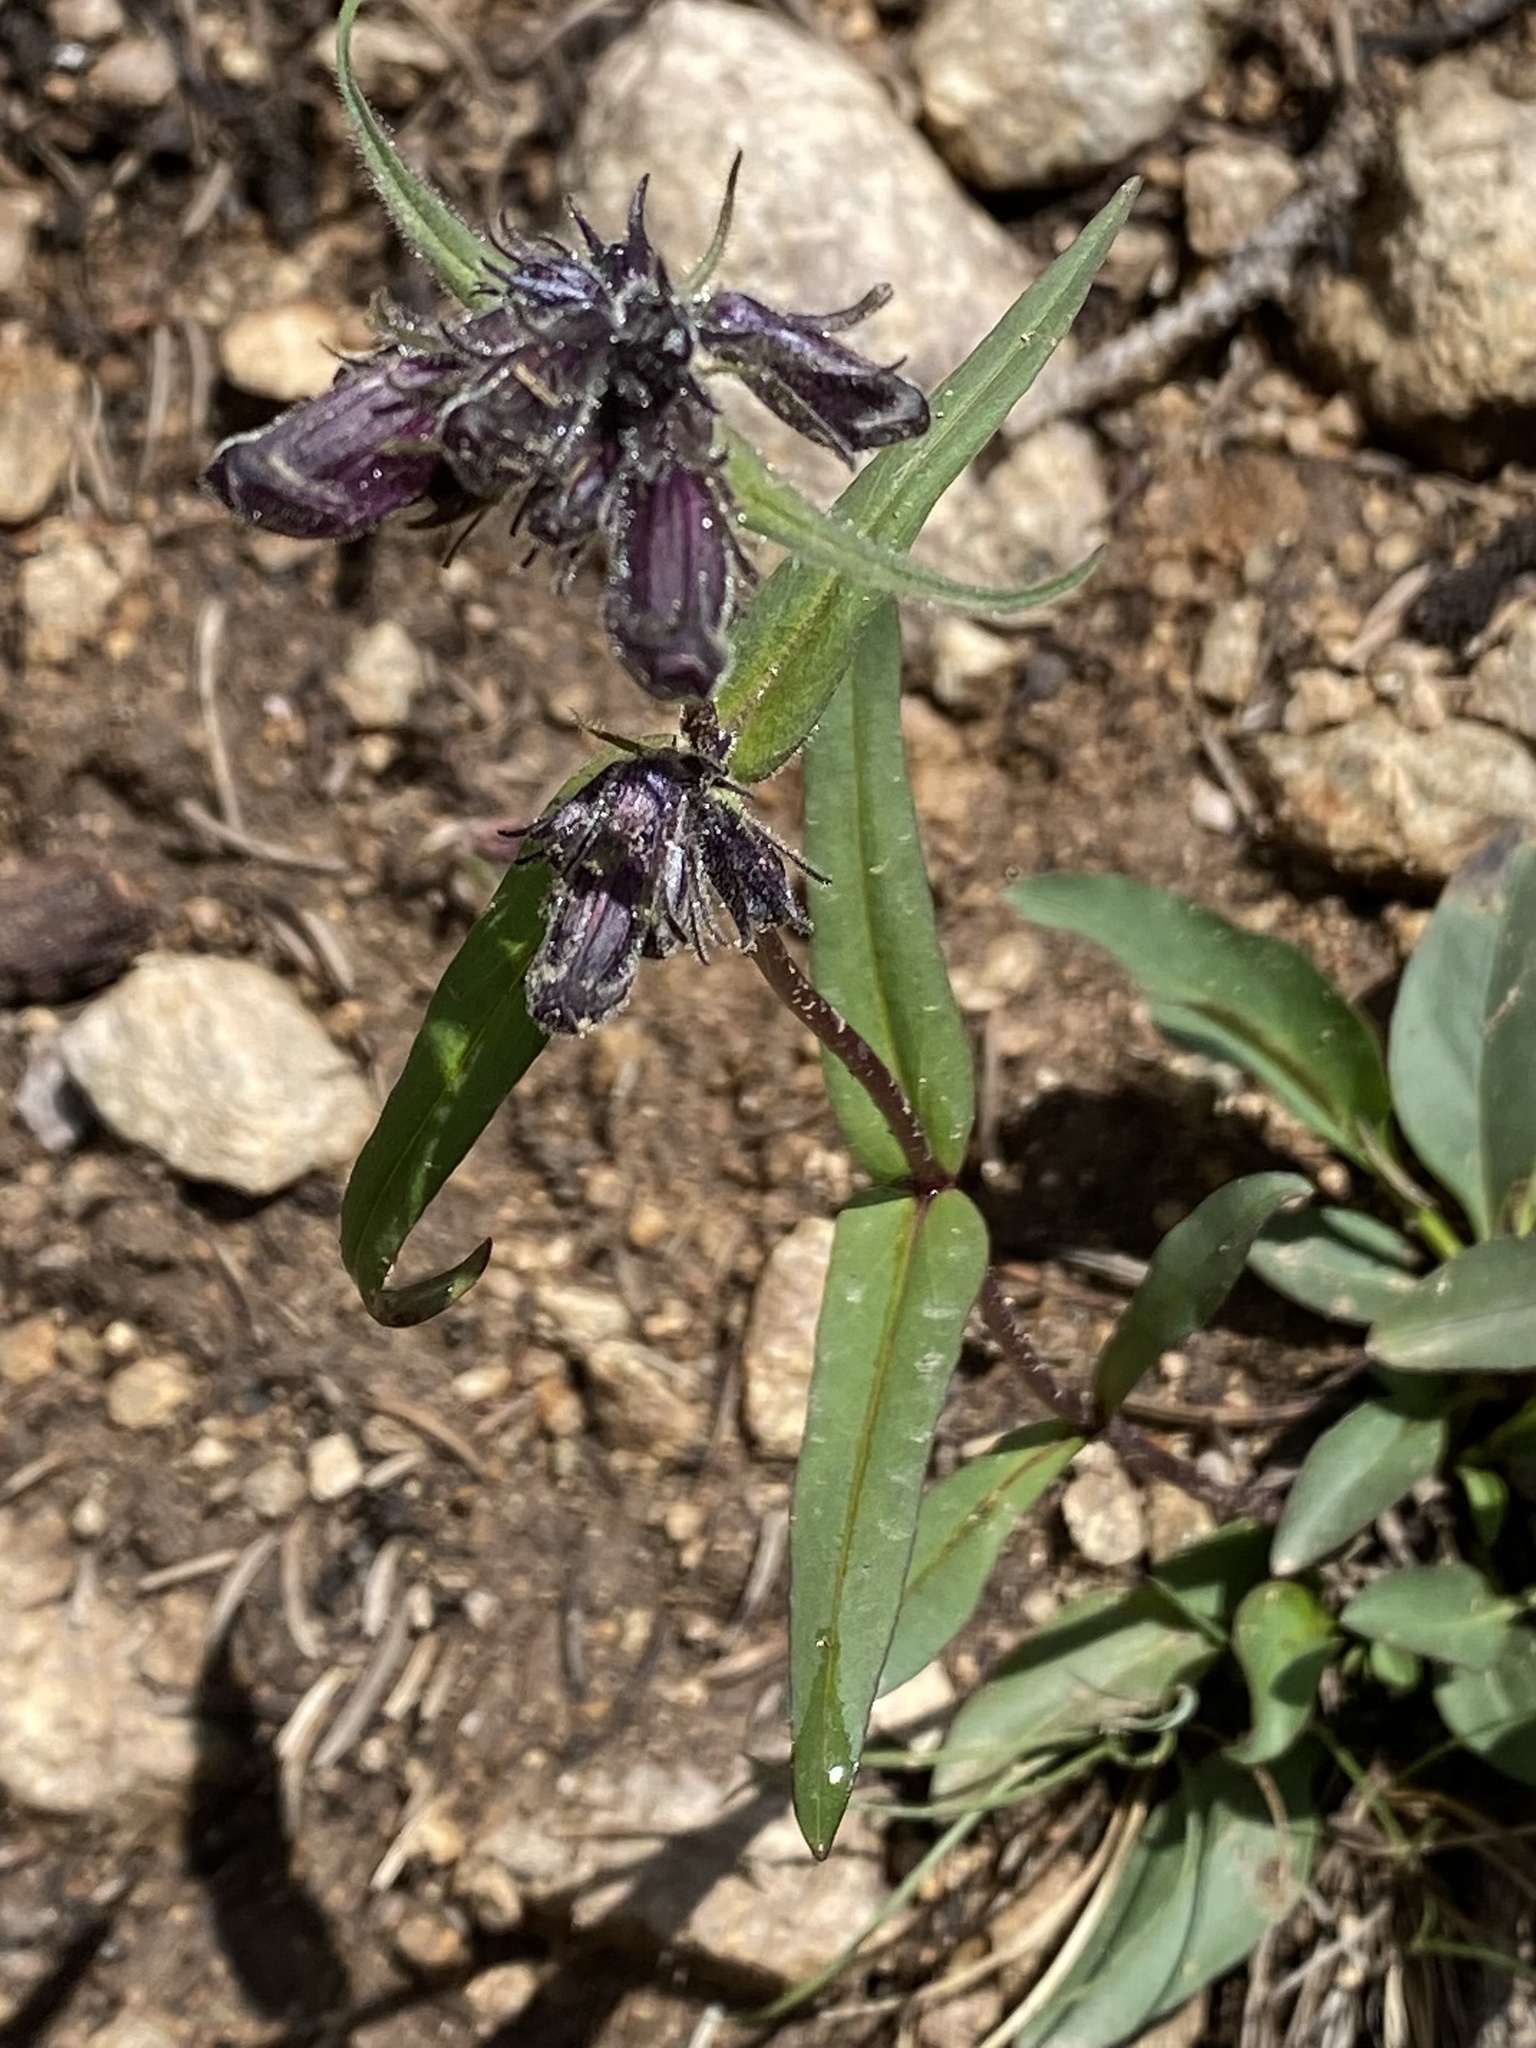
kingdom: Plantae
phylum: Tracheophyta
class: Magnoliopsida
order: Lamiales
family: Plantaginaceae
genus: Penstemon
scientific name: Penstemon whippleanus
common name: Whipple's penstemon
